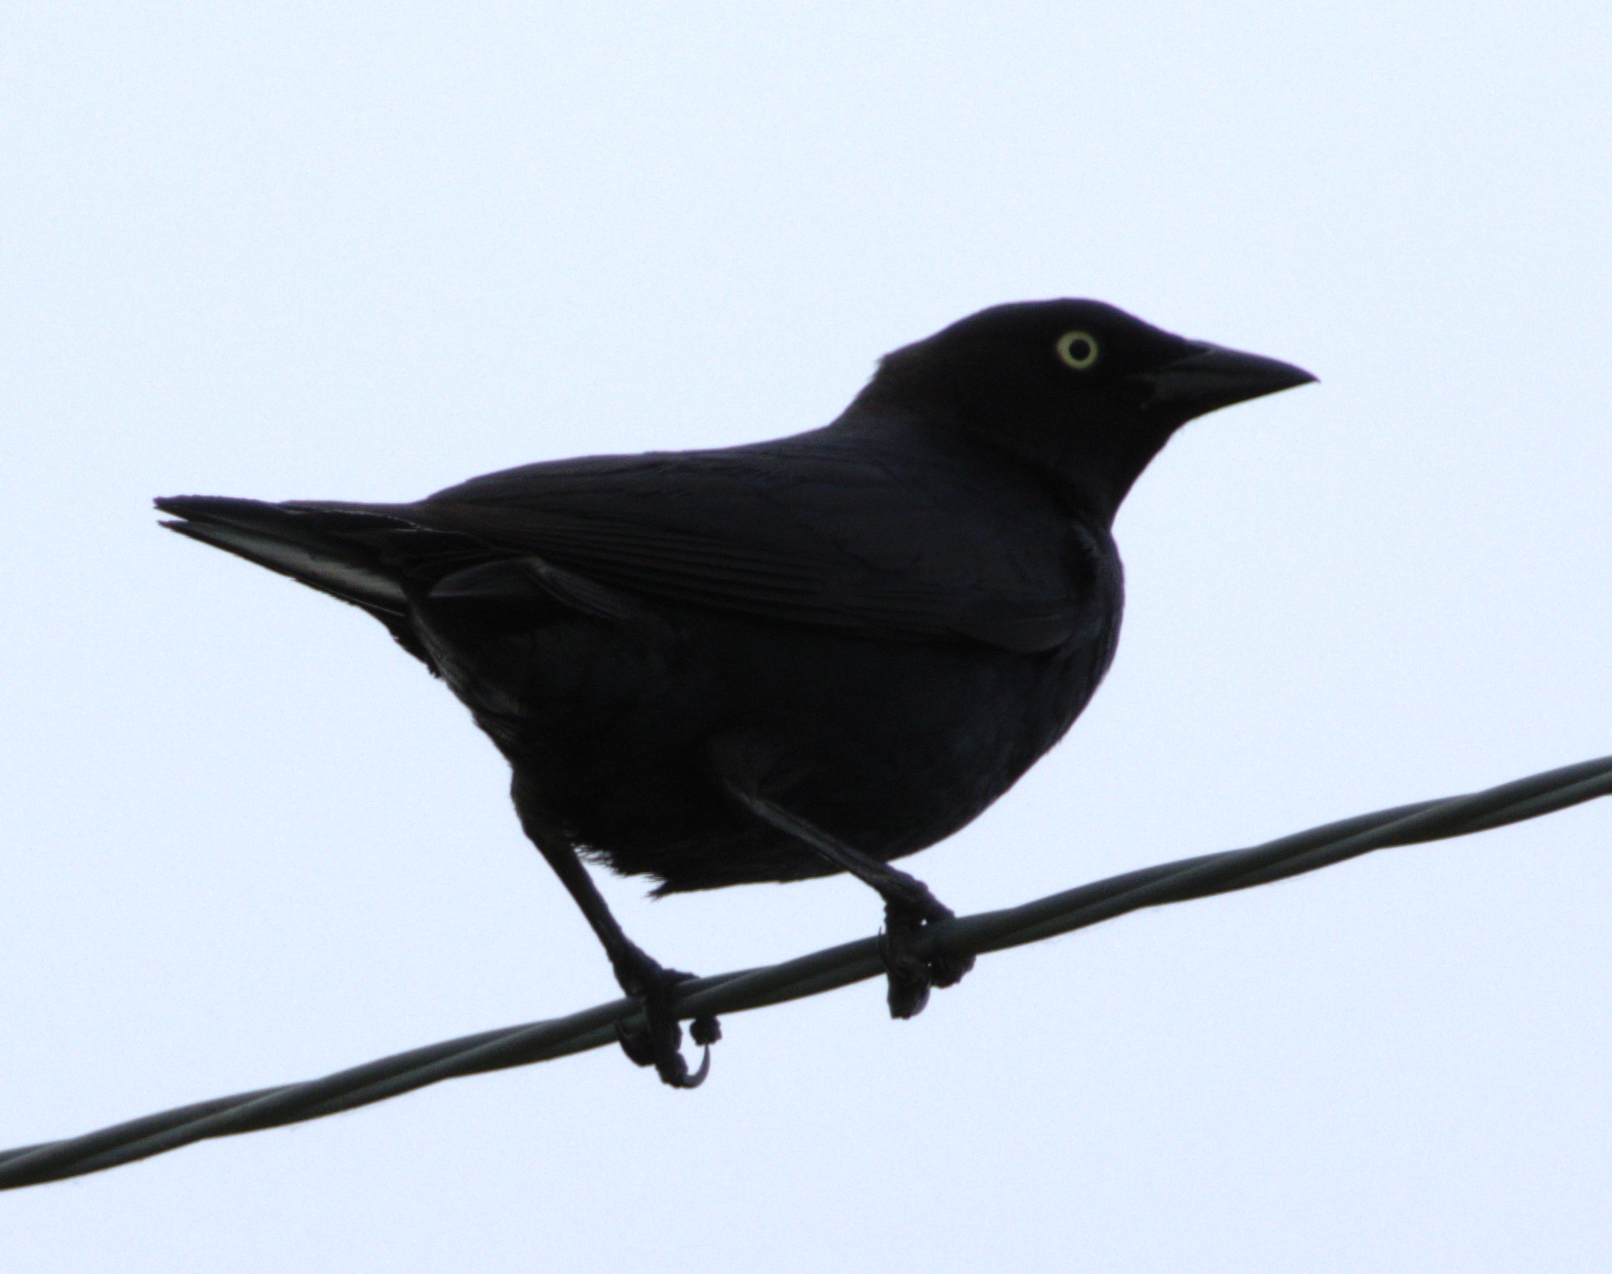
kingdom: Animalia
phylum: Chordata
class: Aves
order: Passeriformes
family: Icteridae
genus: Euphagus
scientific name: Euphagus cyanocephalus
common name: Brewer's blackbird
